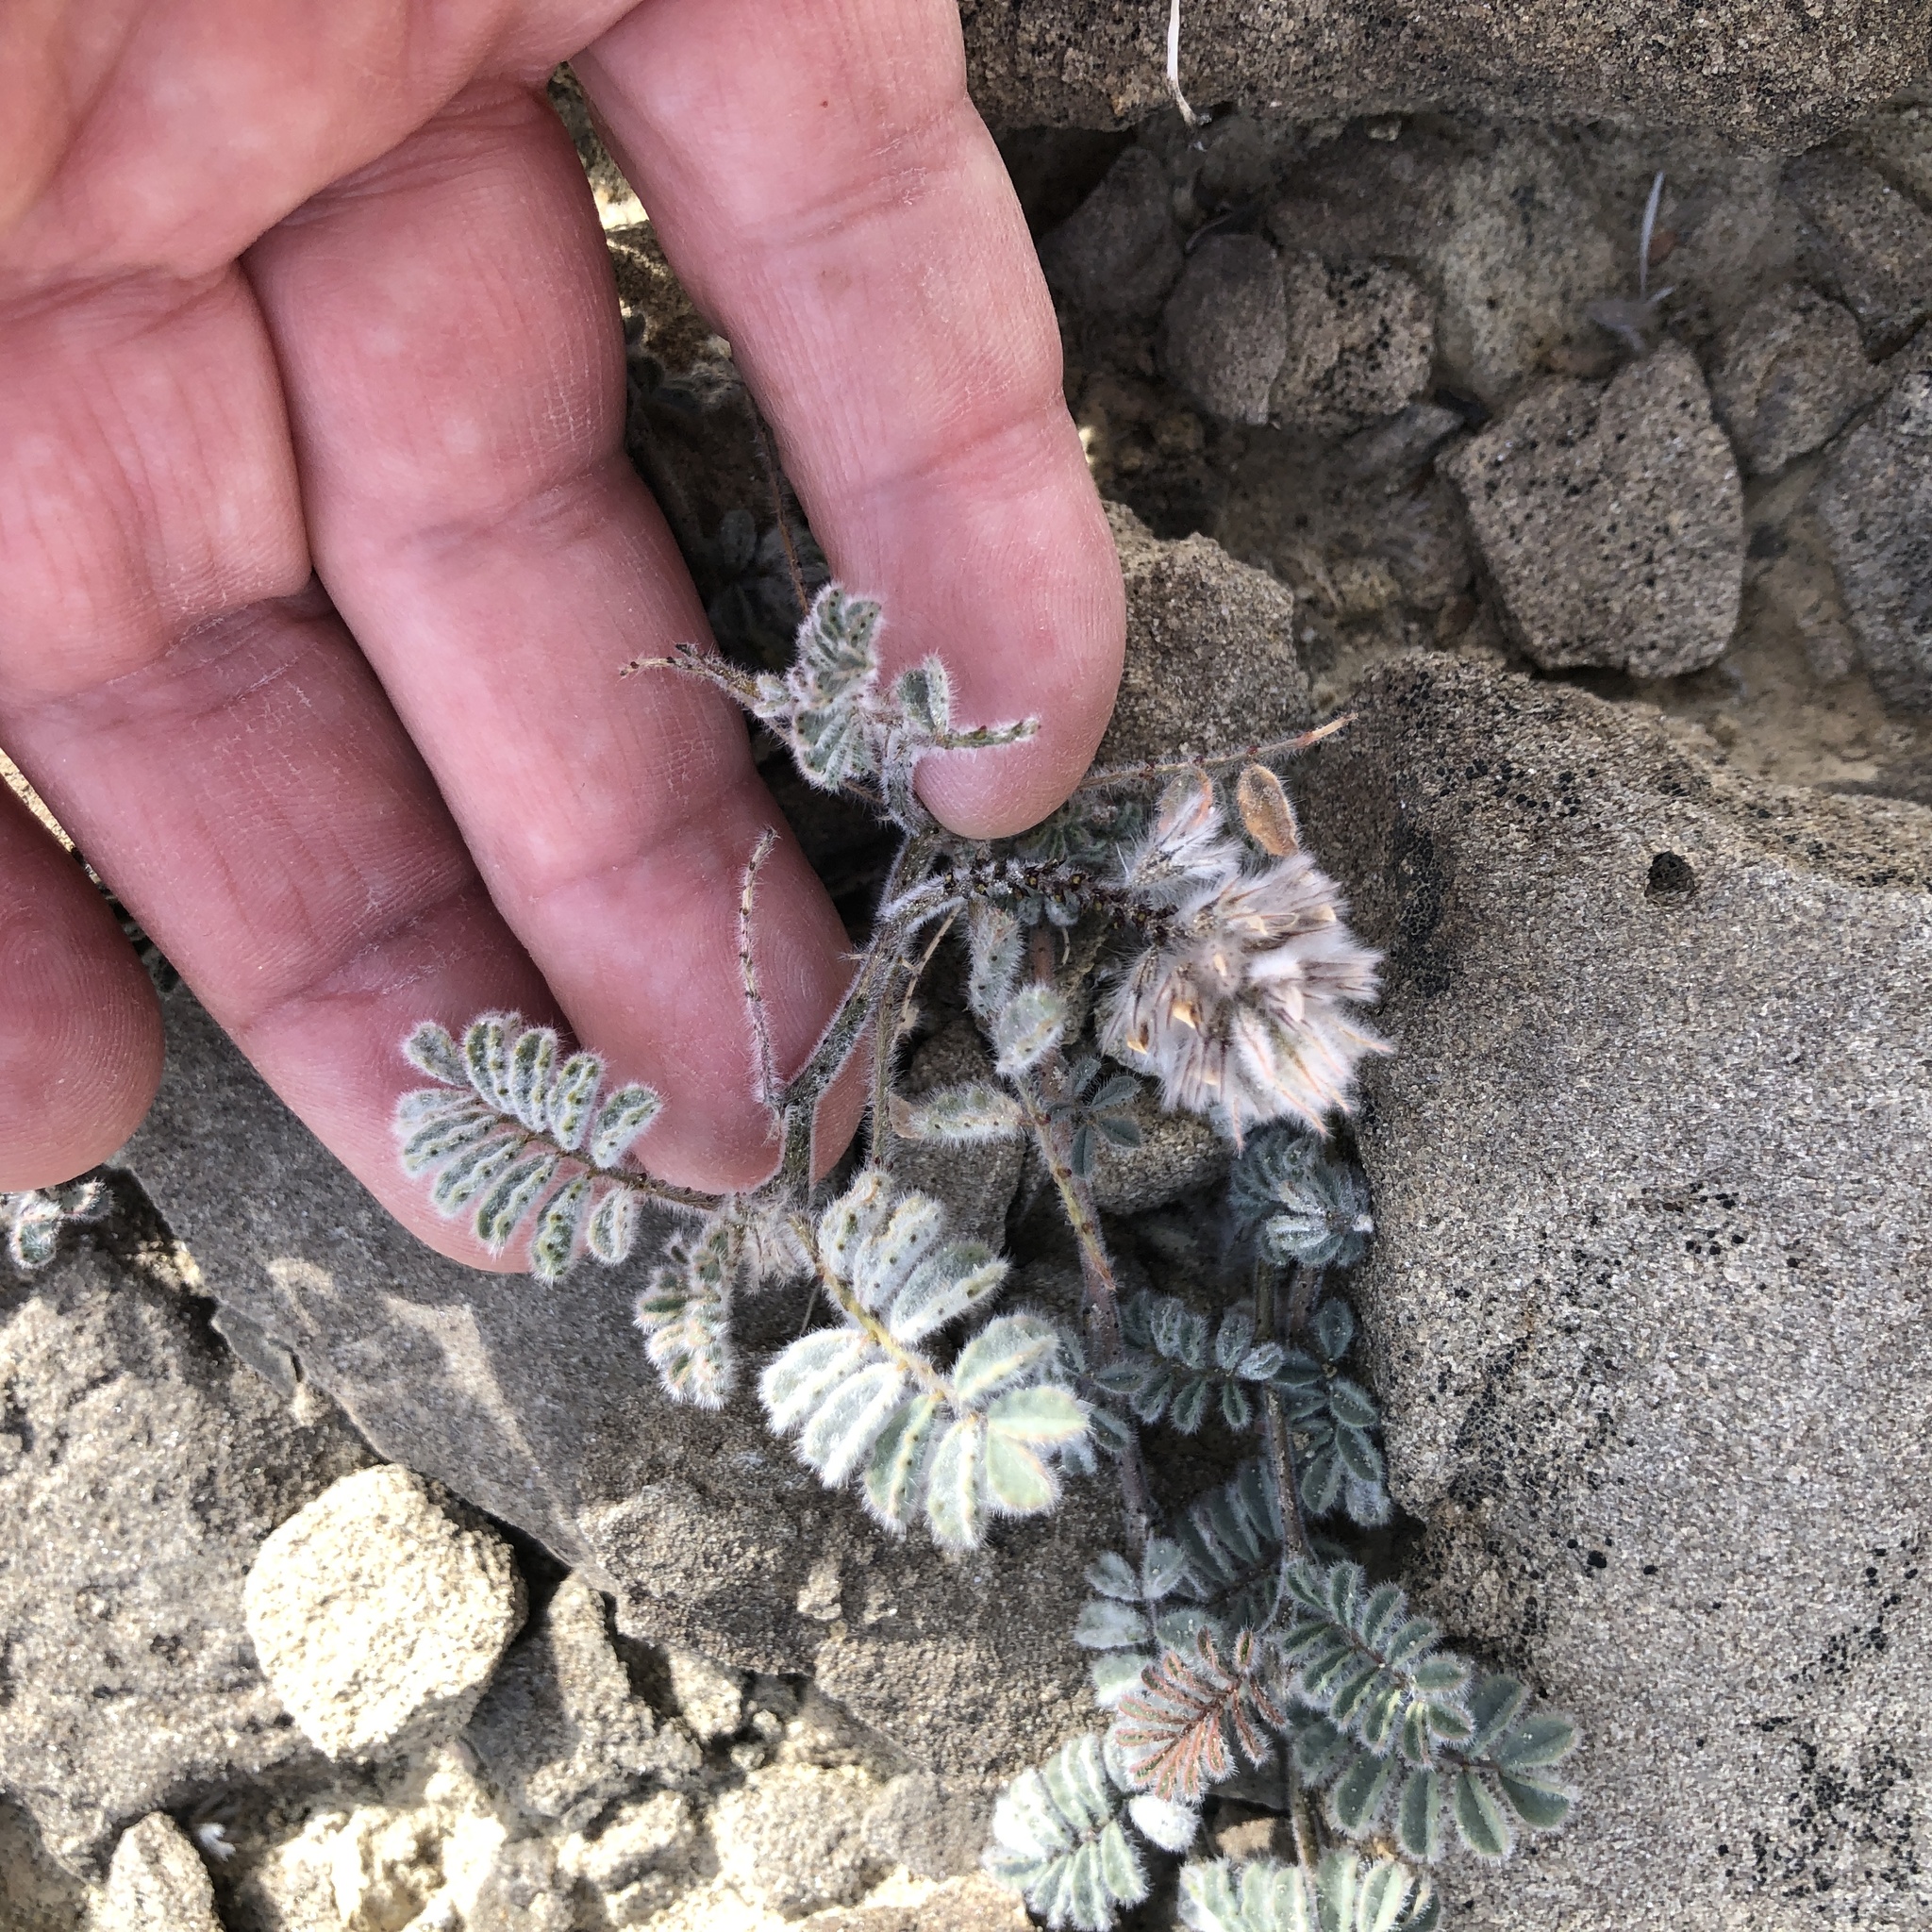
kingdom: Plantae
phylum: Tracheophyta
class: Magnoliopsida
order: Fabales
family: Fabaceae
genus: Dalea
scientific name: Dalea mollissima
